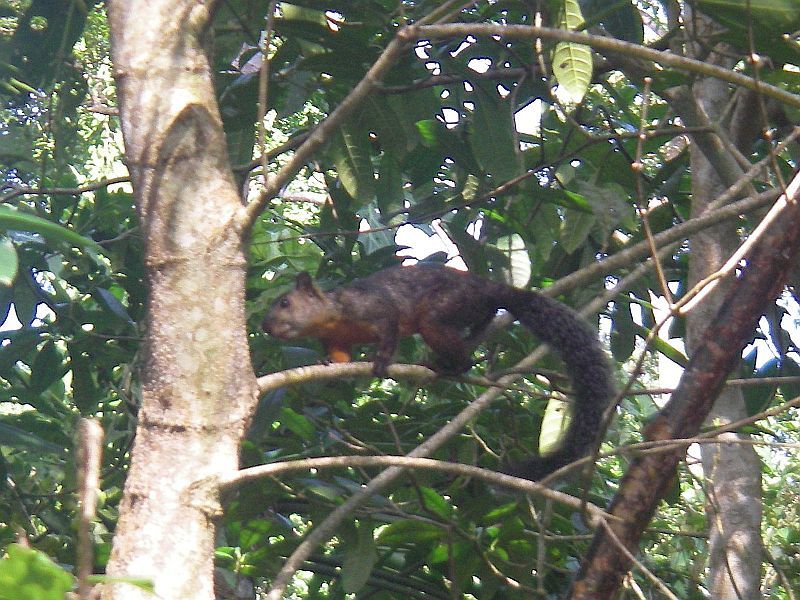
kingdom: Animalia
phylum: Chordata
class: Mammalia
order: Rodentia
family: Sciuridae
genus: Sciurus
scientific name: Sciurus variegatoides
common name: Variegated squirrel
